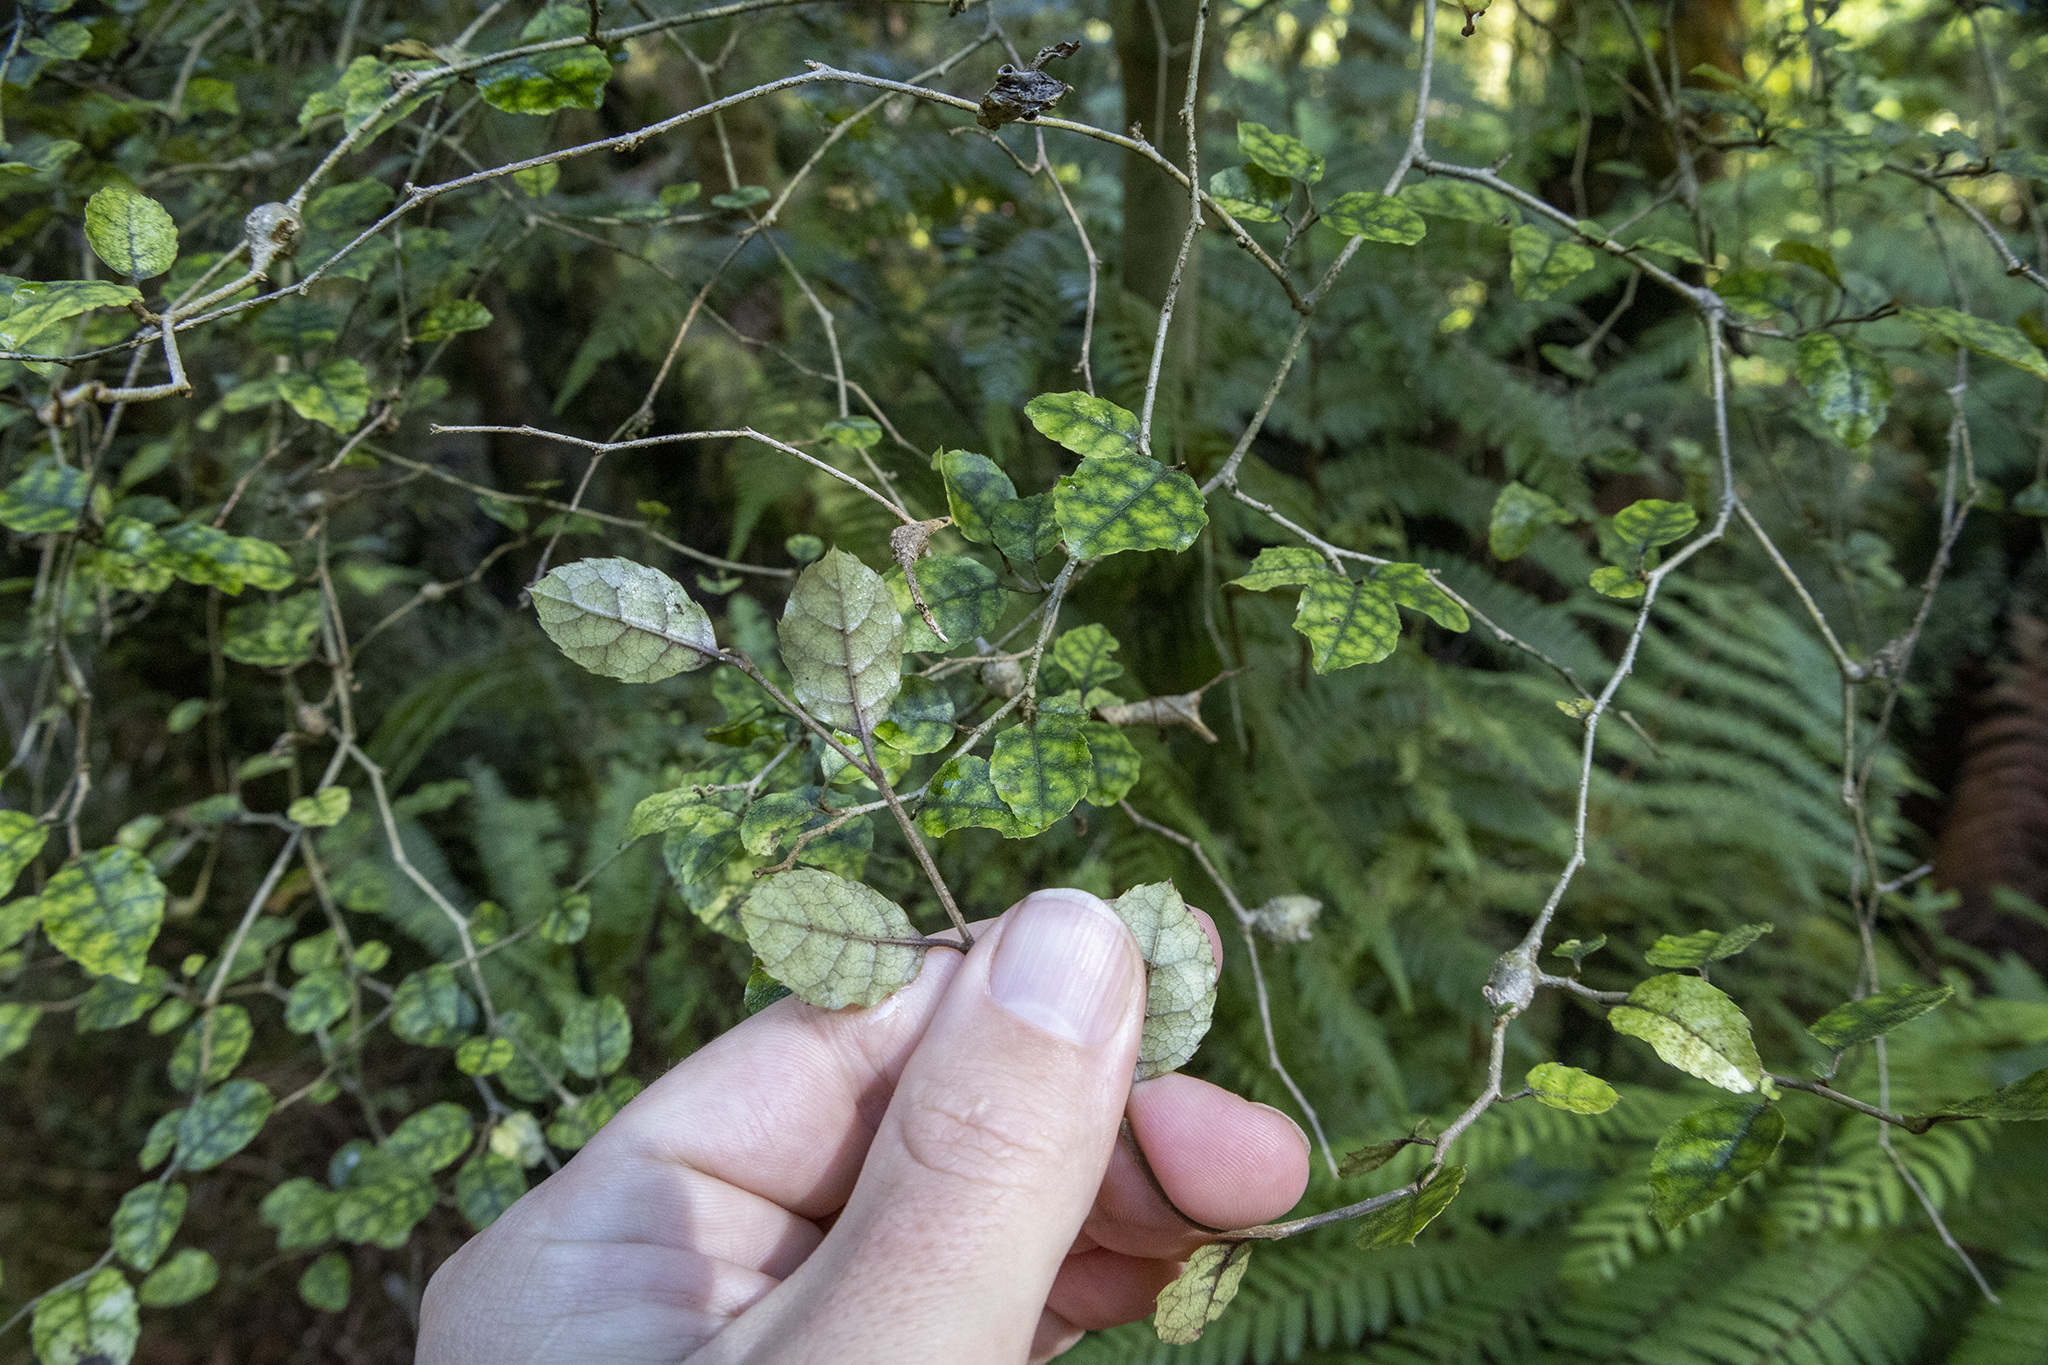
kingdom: Plantae
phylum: Tracheophyta
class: Magnoliopsida
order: Asterales
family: Rousseaceae
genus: Carpodetus
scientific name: Carpodetus serratus
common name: White mapau
